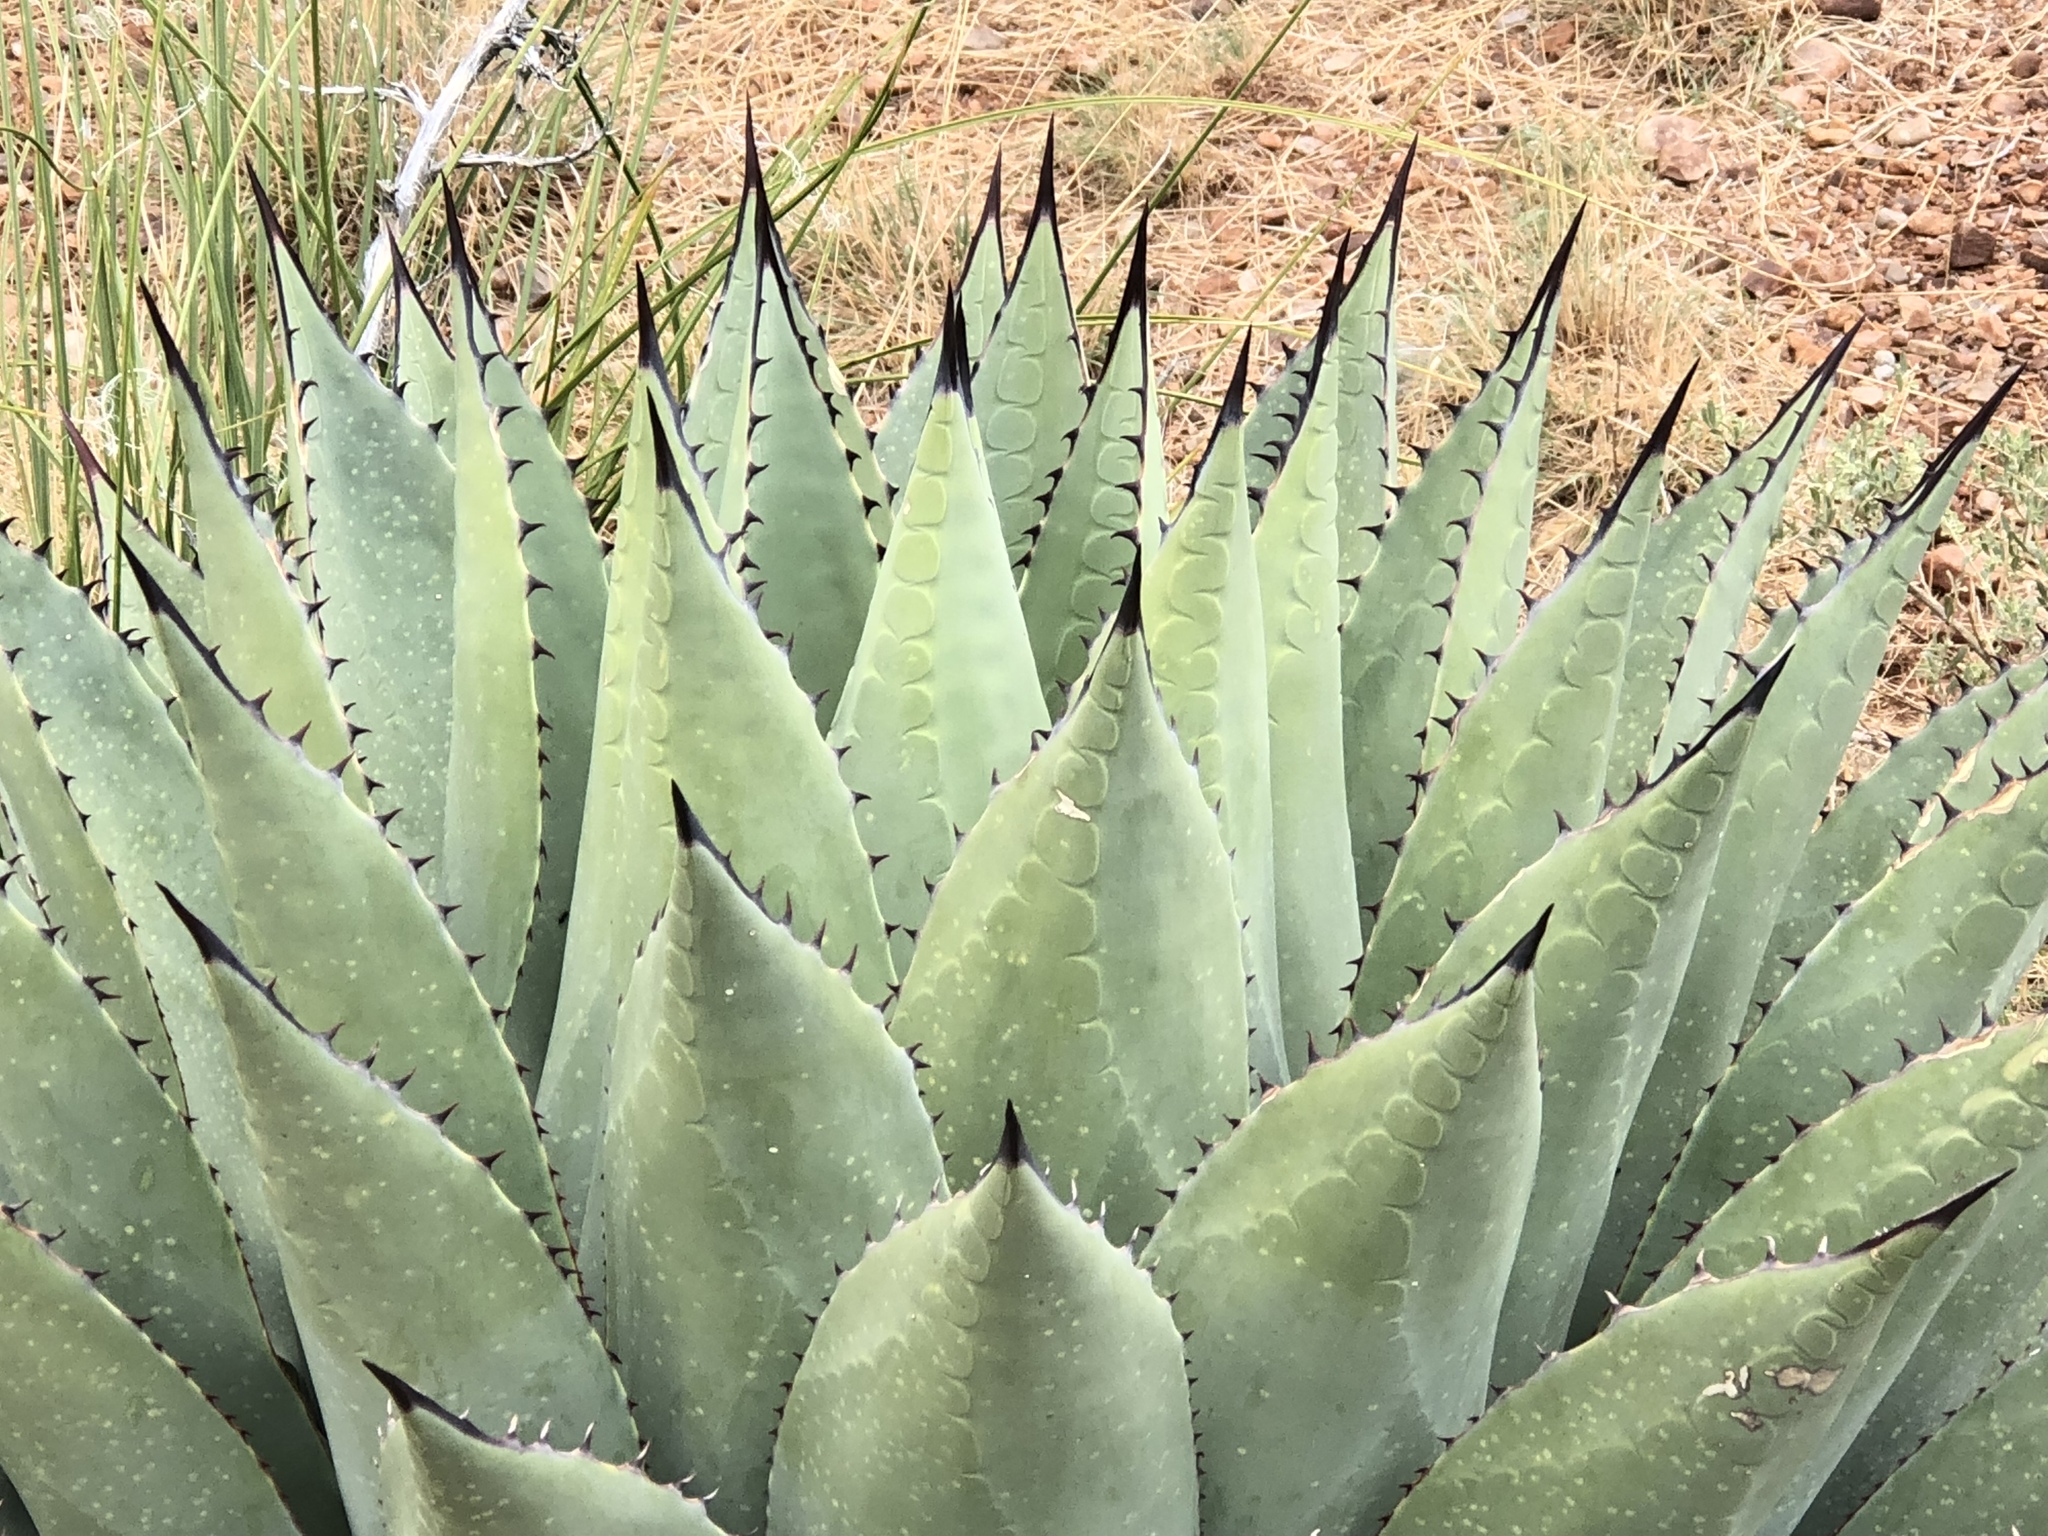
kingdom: Plantae
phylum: Tracheophyta
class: Liliopsida
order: Asparagales
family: Asparagaceae
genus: Agave
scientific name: Agave parryi
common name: Parry's agave
